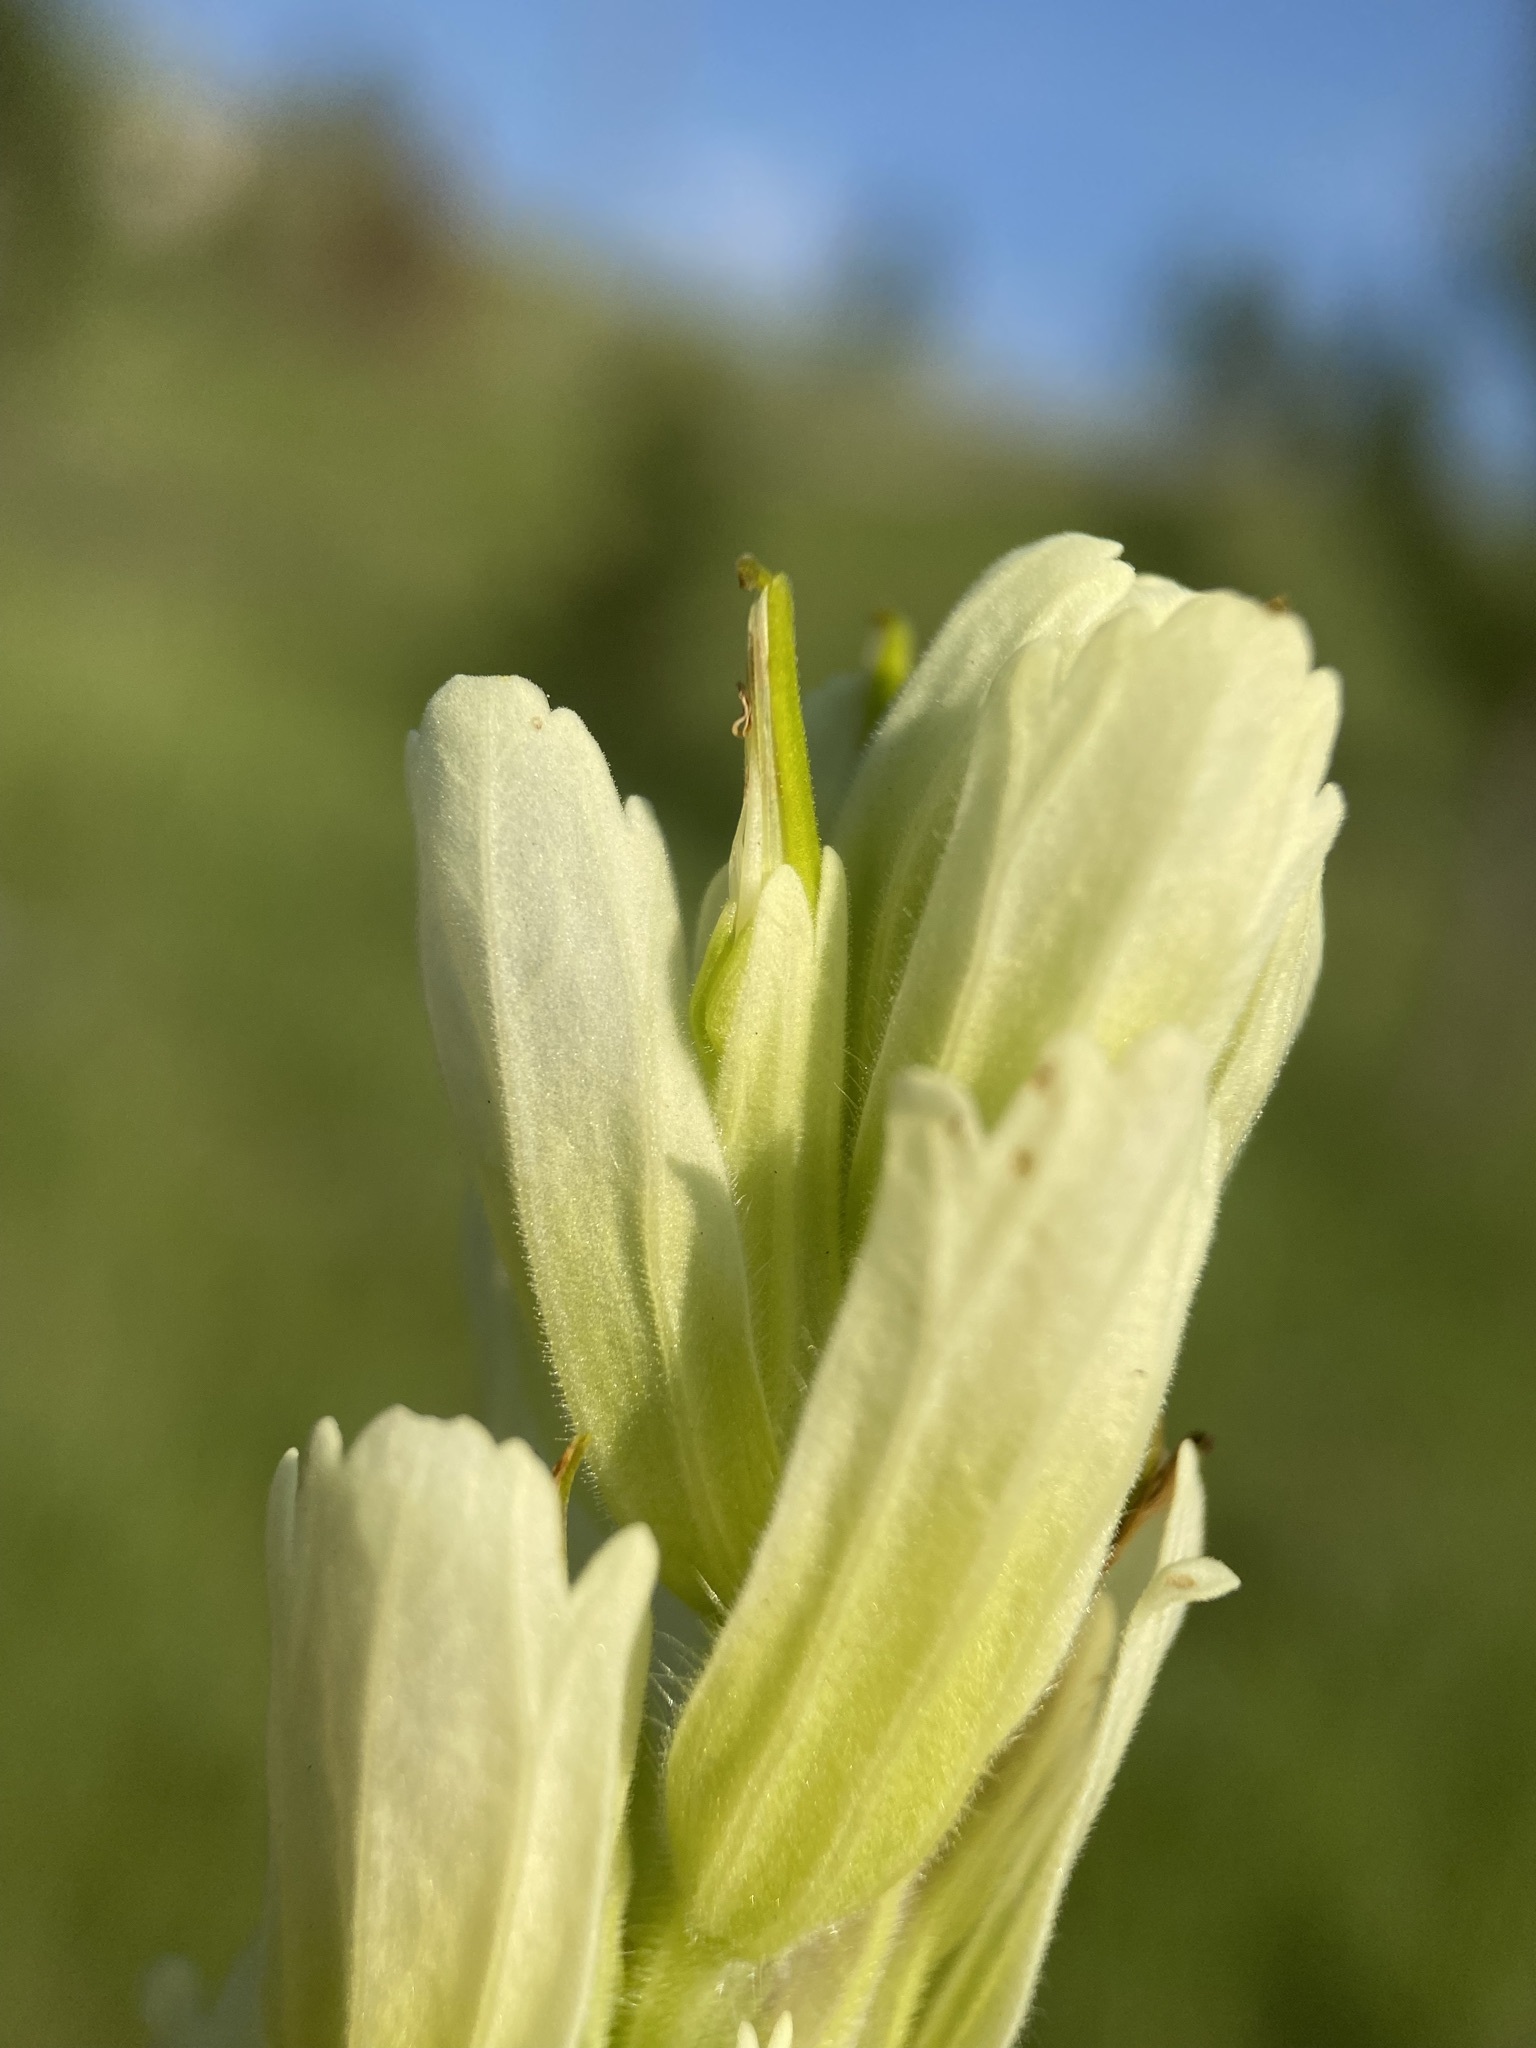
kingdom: Plantae
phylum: Tracheophyta
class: Magnoliopsida
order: Lamiales
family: Orobanchaceae
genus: Castilleja
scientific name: Castilleja septentrionalis
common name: Northeastern paintbrush
